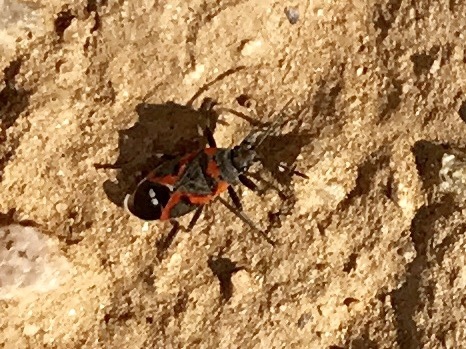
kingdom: Animalia
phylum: Arthropoda
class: Insecta
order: Hemiptera
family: Lygaeidae
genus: Lygaeus
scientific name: Lygaeus kalmii
